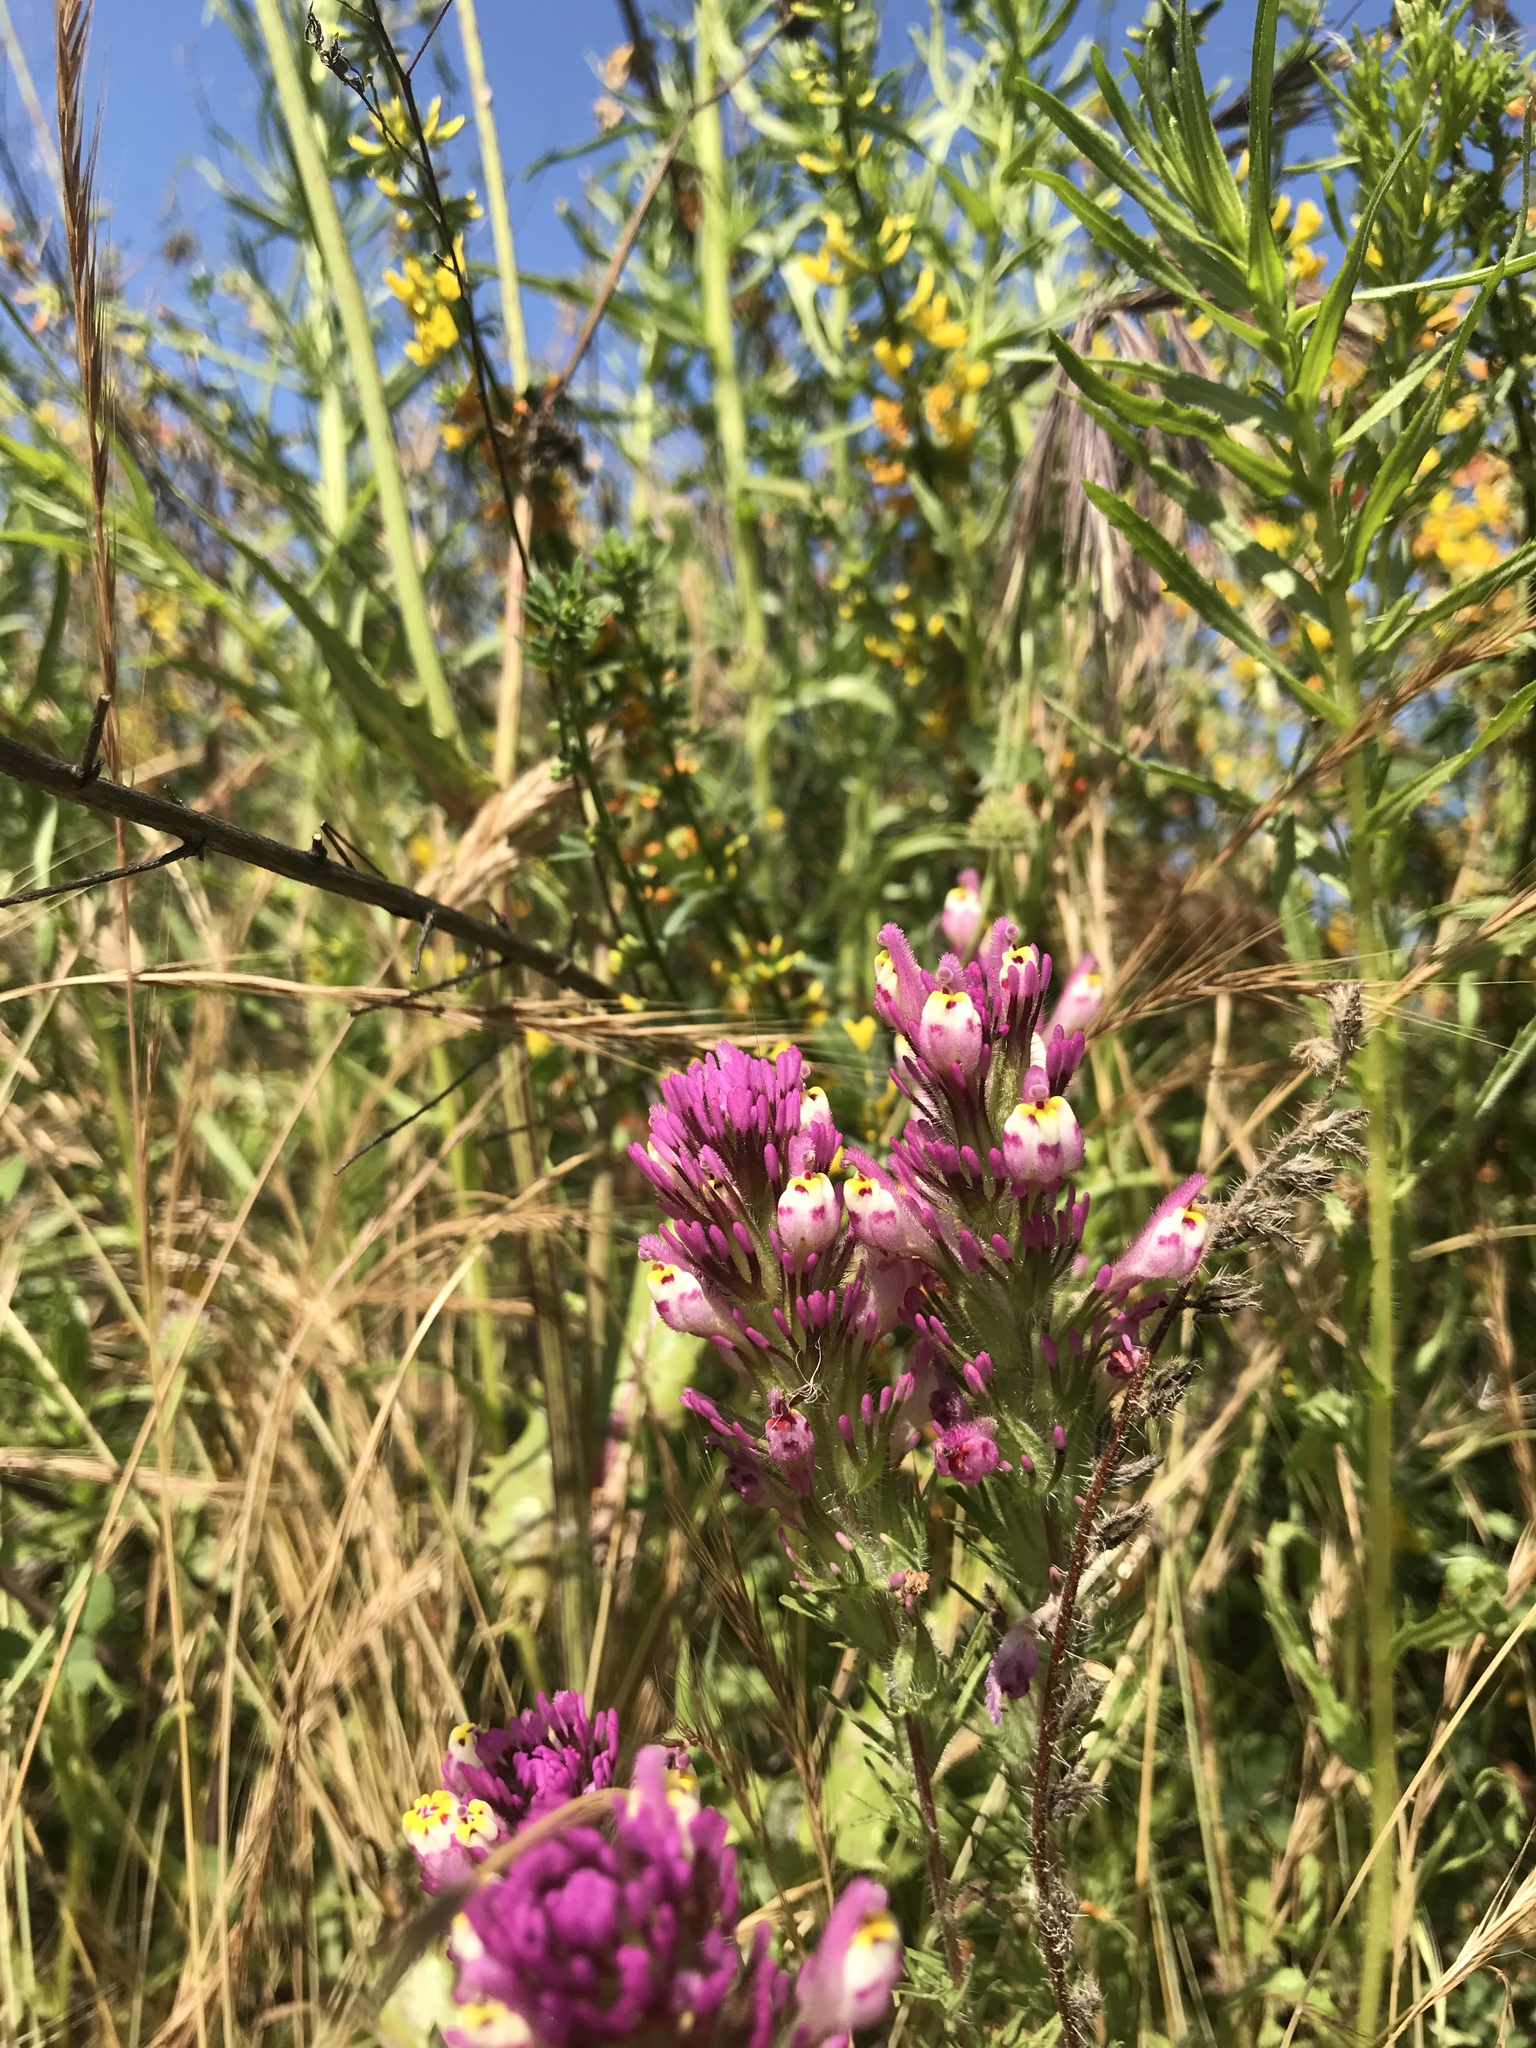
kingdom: Plantae
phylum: Tracheophyta
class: Magnoliopsida
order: Lamiales
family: Orobanchaceae
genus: Castilleja
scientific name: Castilleja exserta
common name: Purple owl-clover
